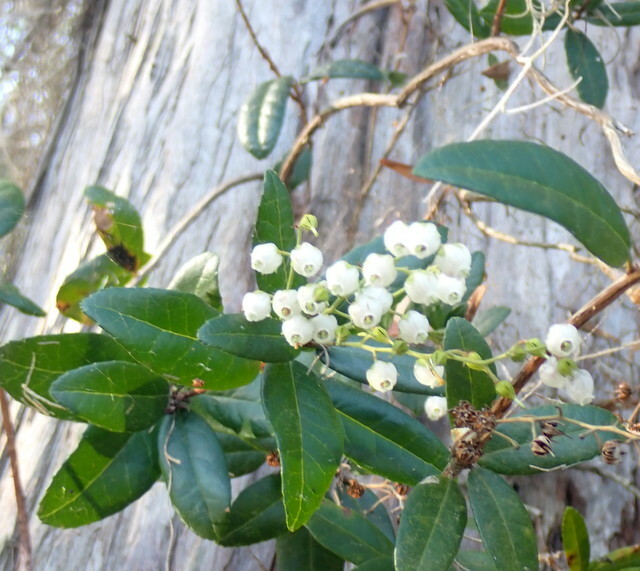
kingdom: Plantae
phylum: Tracheophyta
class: Magnoliopsida
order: Ericales
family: Ericaceae
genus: Pieris
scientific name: Pieris phillyreifolia
